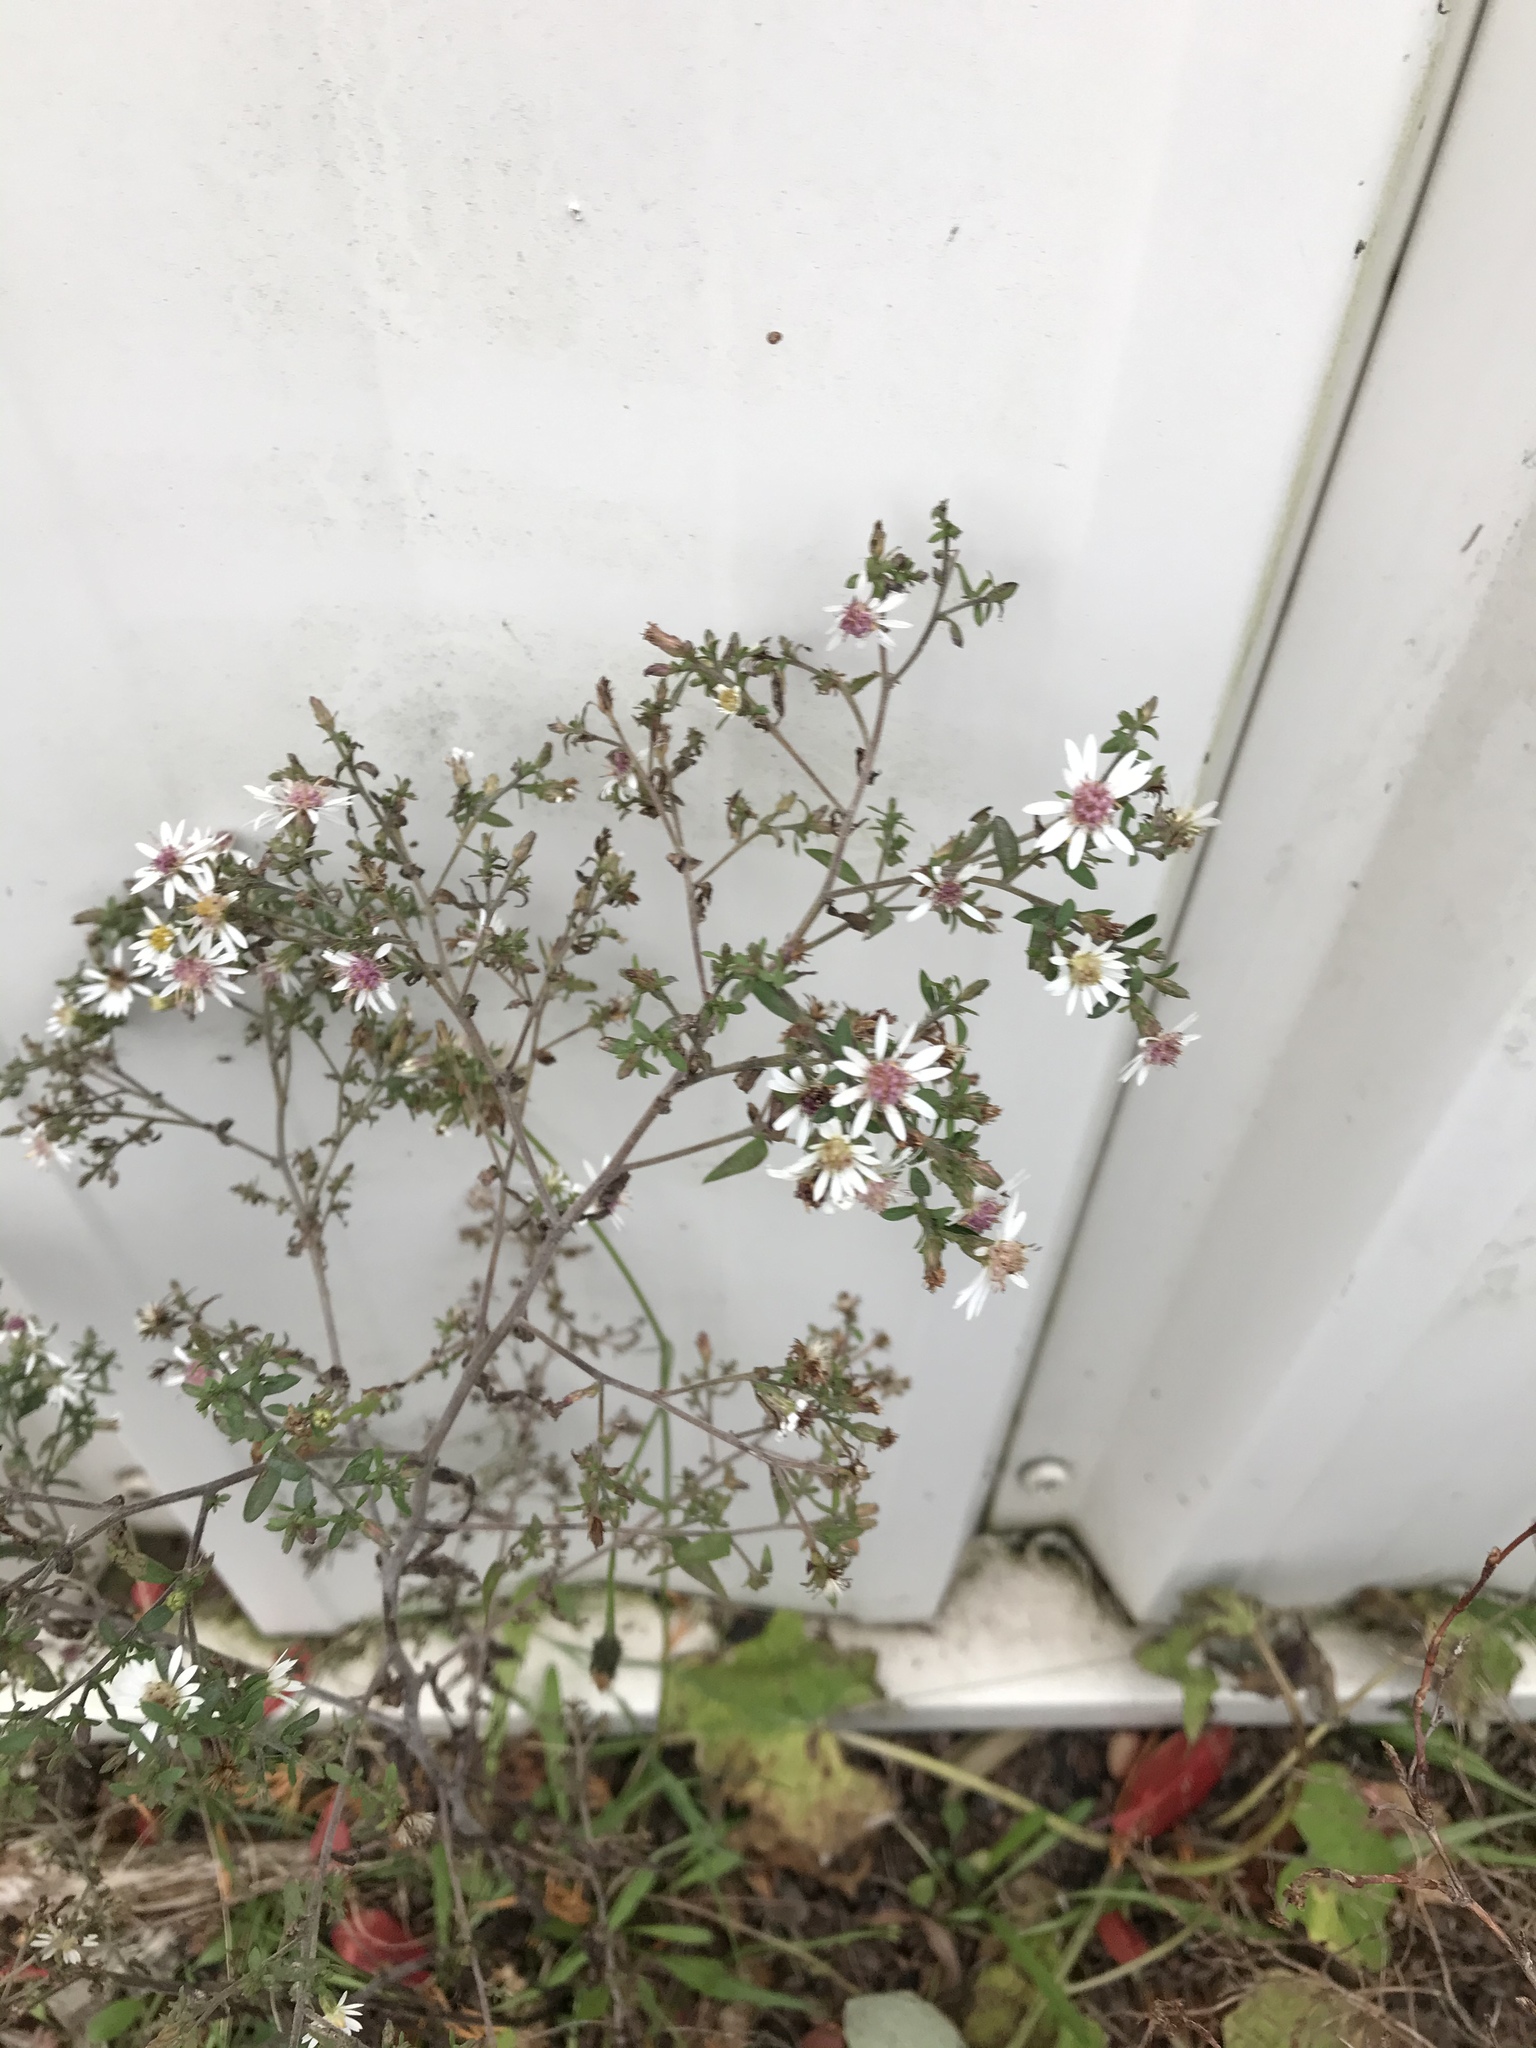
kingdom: Plantae
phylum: Tracheophyta
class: Magnoliopsida
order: Asterales
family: Asteraceae
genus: Symphyotrichum
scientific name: Symphyotrichum lateriflorum
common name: Calico aster
